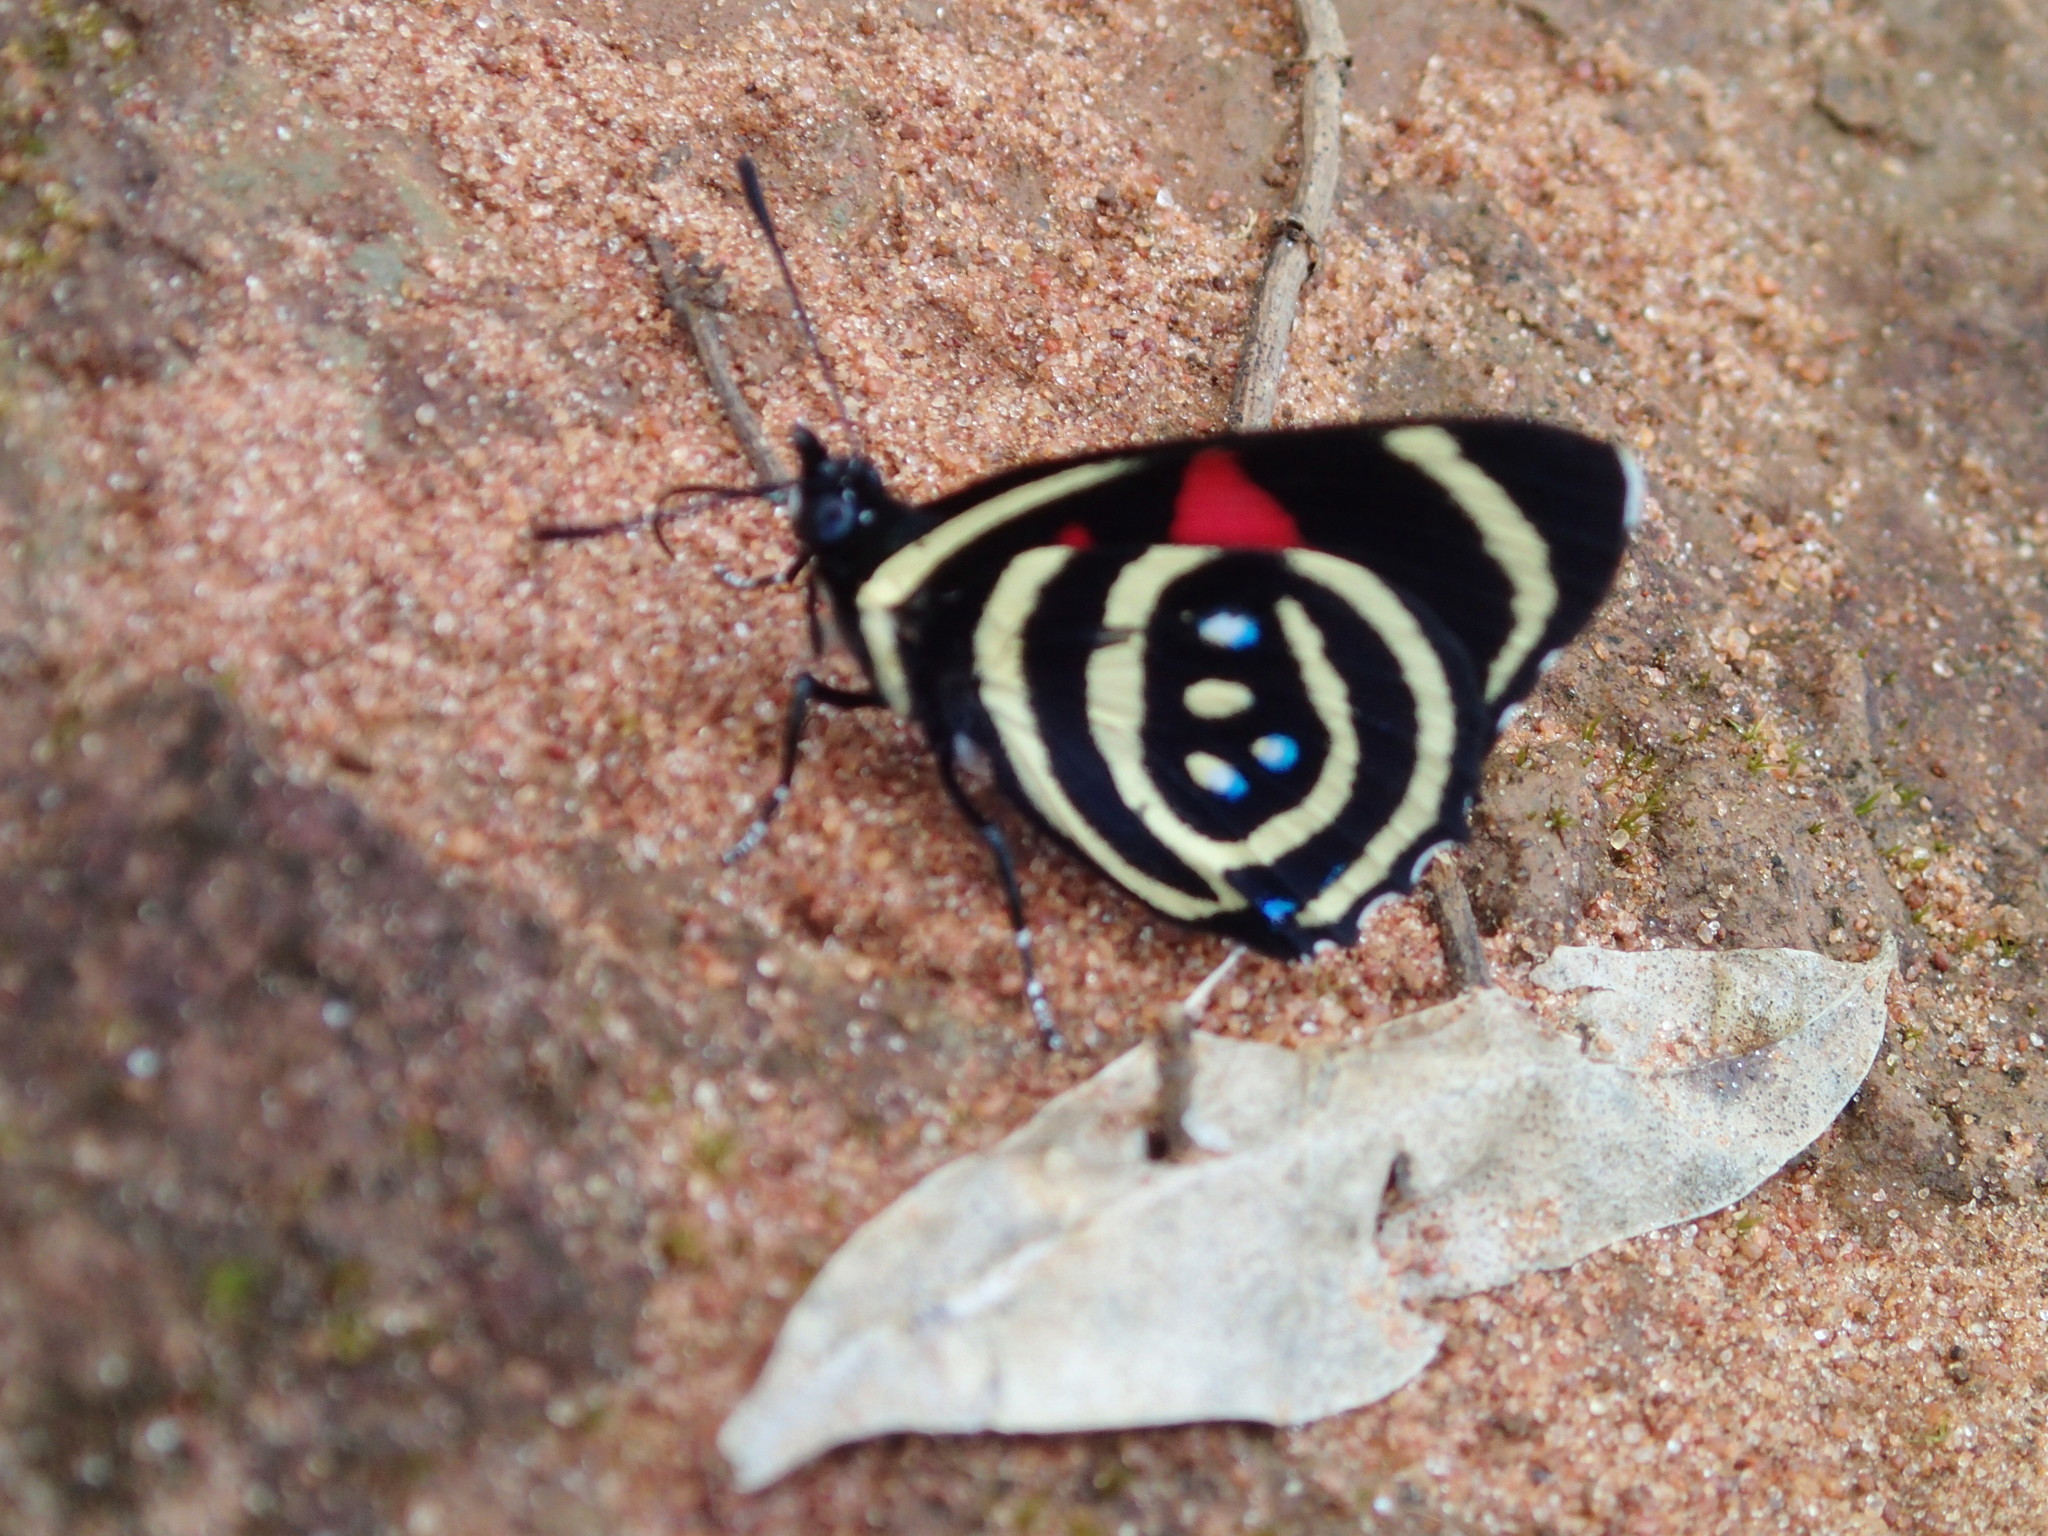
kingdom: Animalia
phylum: Arthropoda
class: Insecta
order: Lepidoptera
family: Nymphalidae
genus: Catagramma
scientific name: Catagramma Callicore hydaspes
